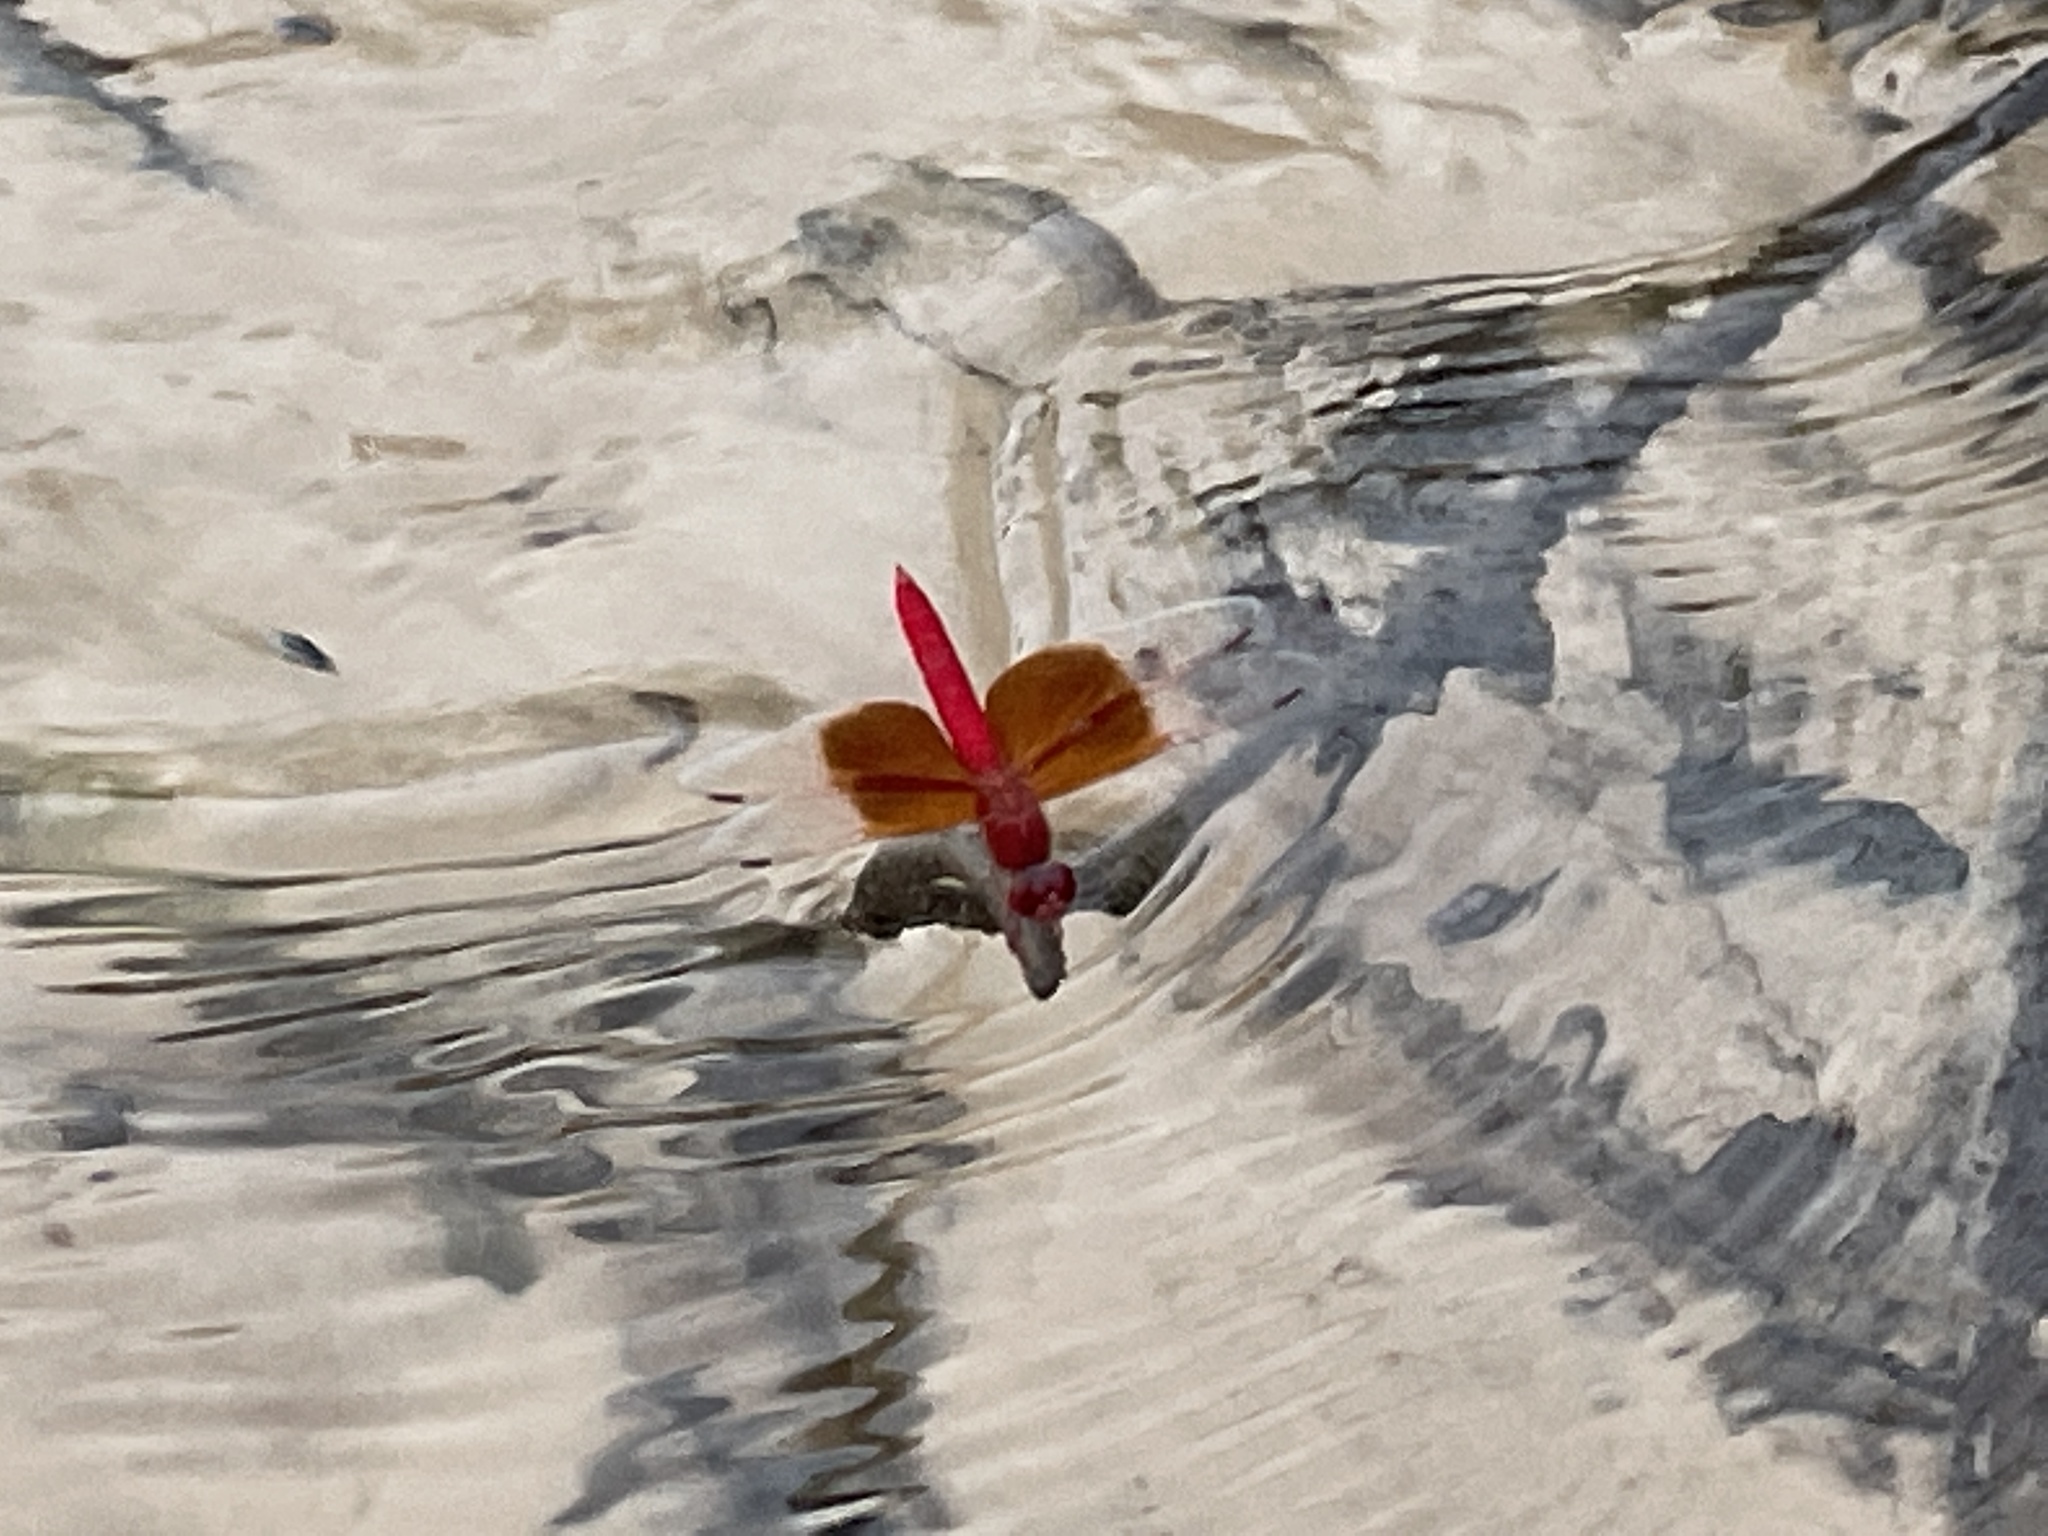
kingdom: Animalia
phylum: Arthropoda
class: Insecta
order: Odonata
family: Libellulidae
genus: Brachythemis
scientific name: Brachythemis lacustris
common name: Red groundling
